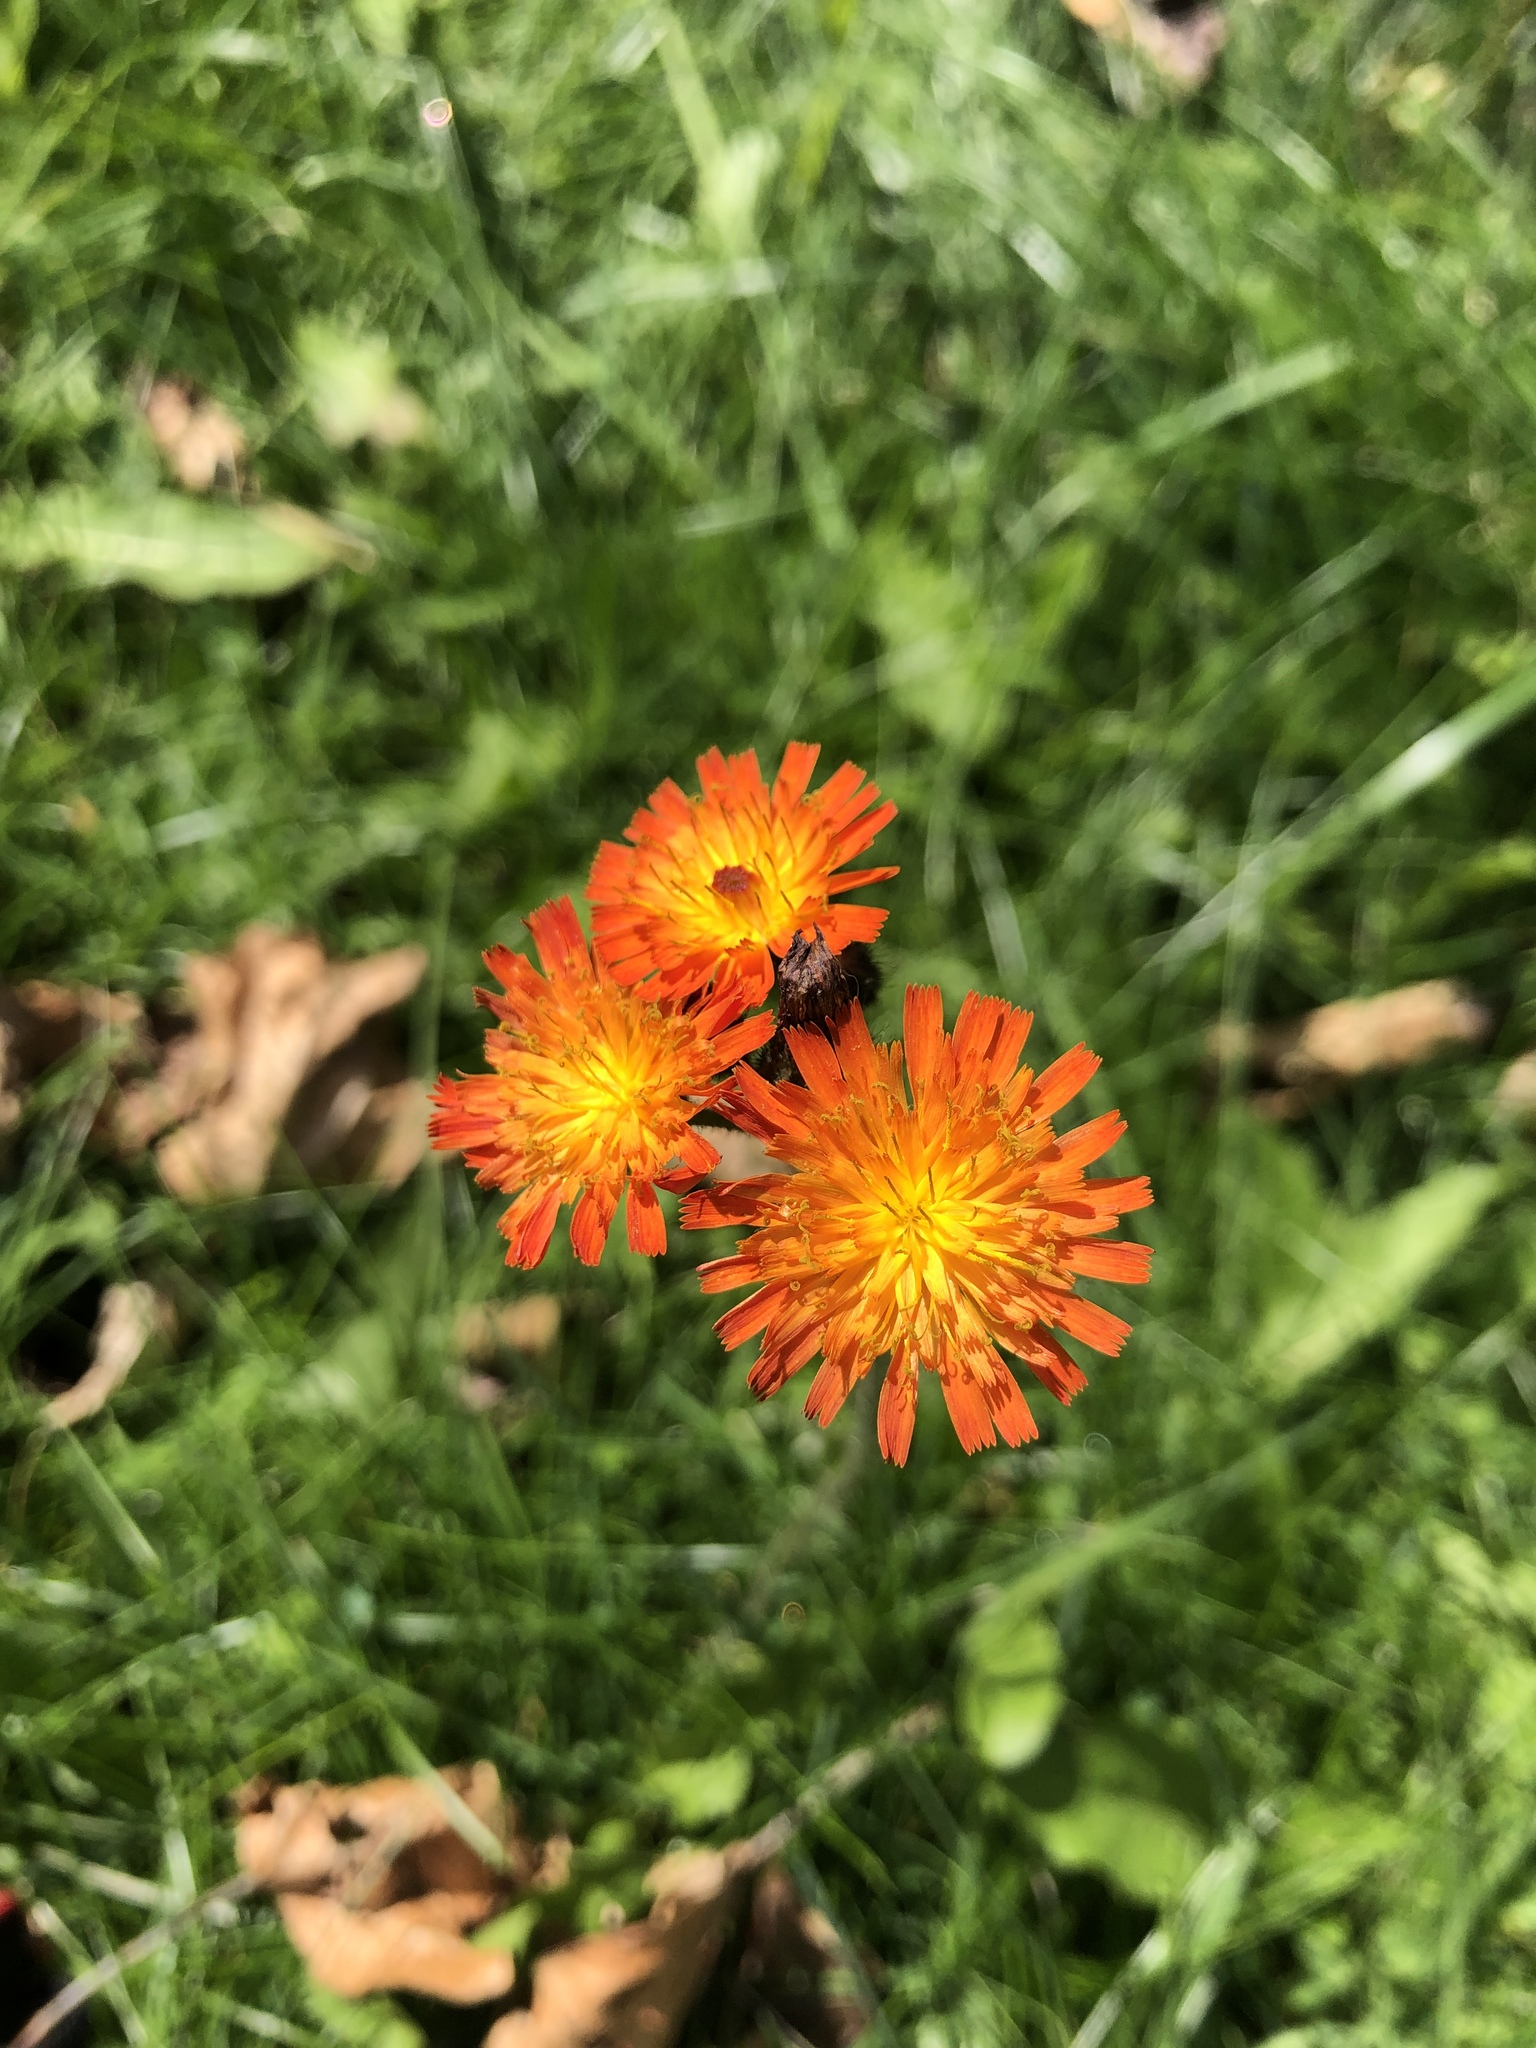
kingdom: Plantae
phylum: Tracheophyta
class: Magnoliopsida
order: Asterales
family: Asteraceae
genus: Pilosella
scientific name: Pilosella aurantiaca
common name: Fox-and-cubs
